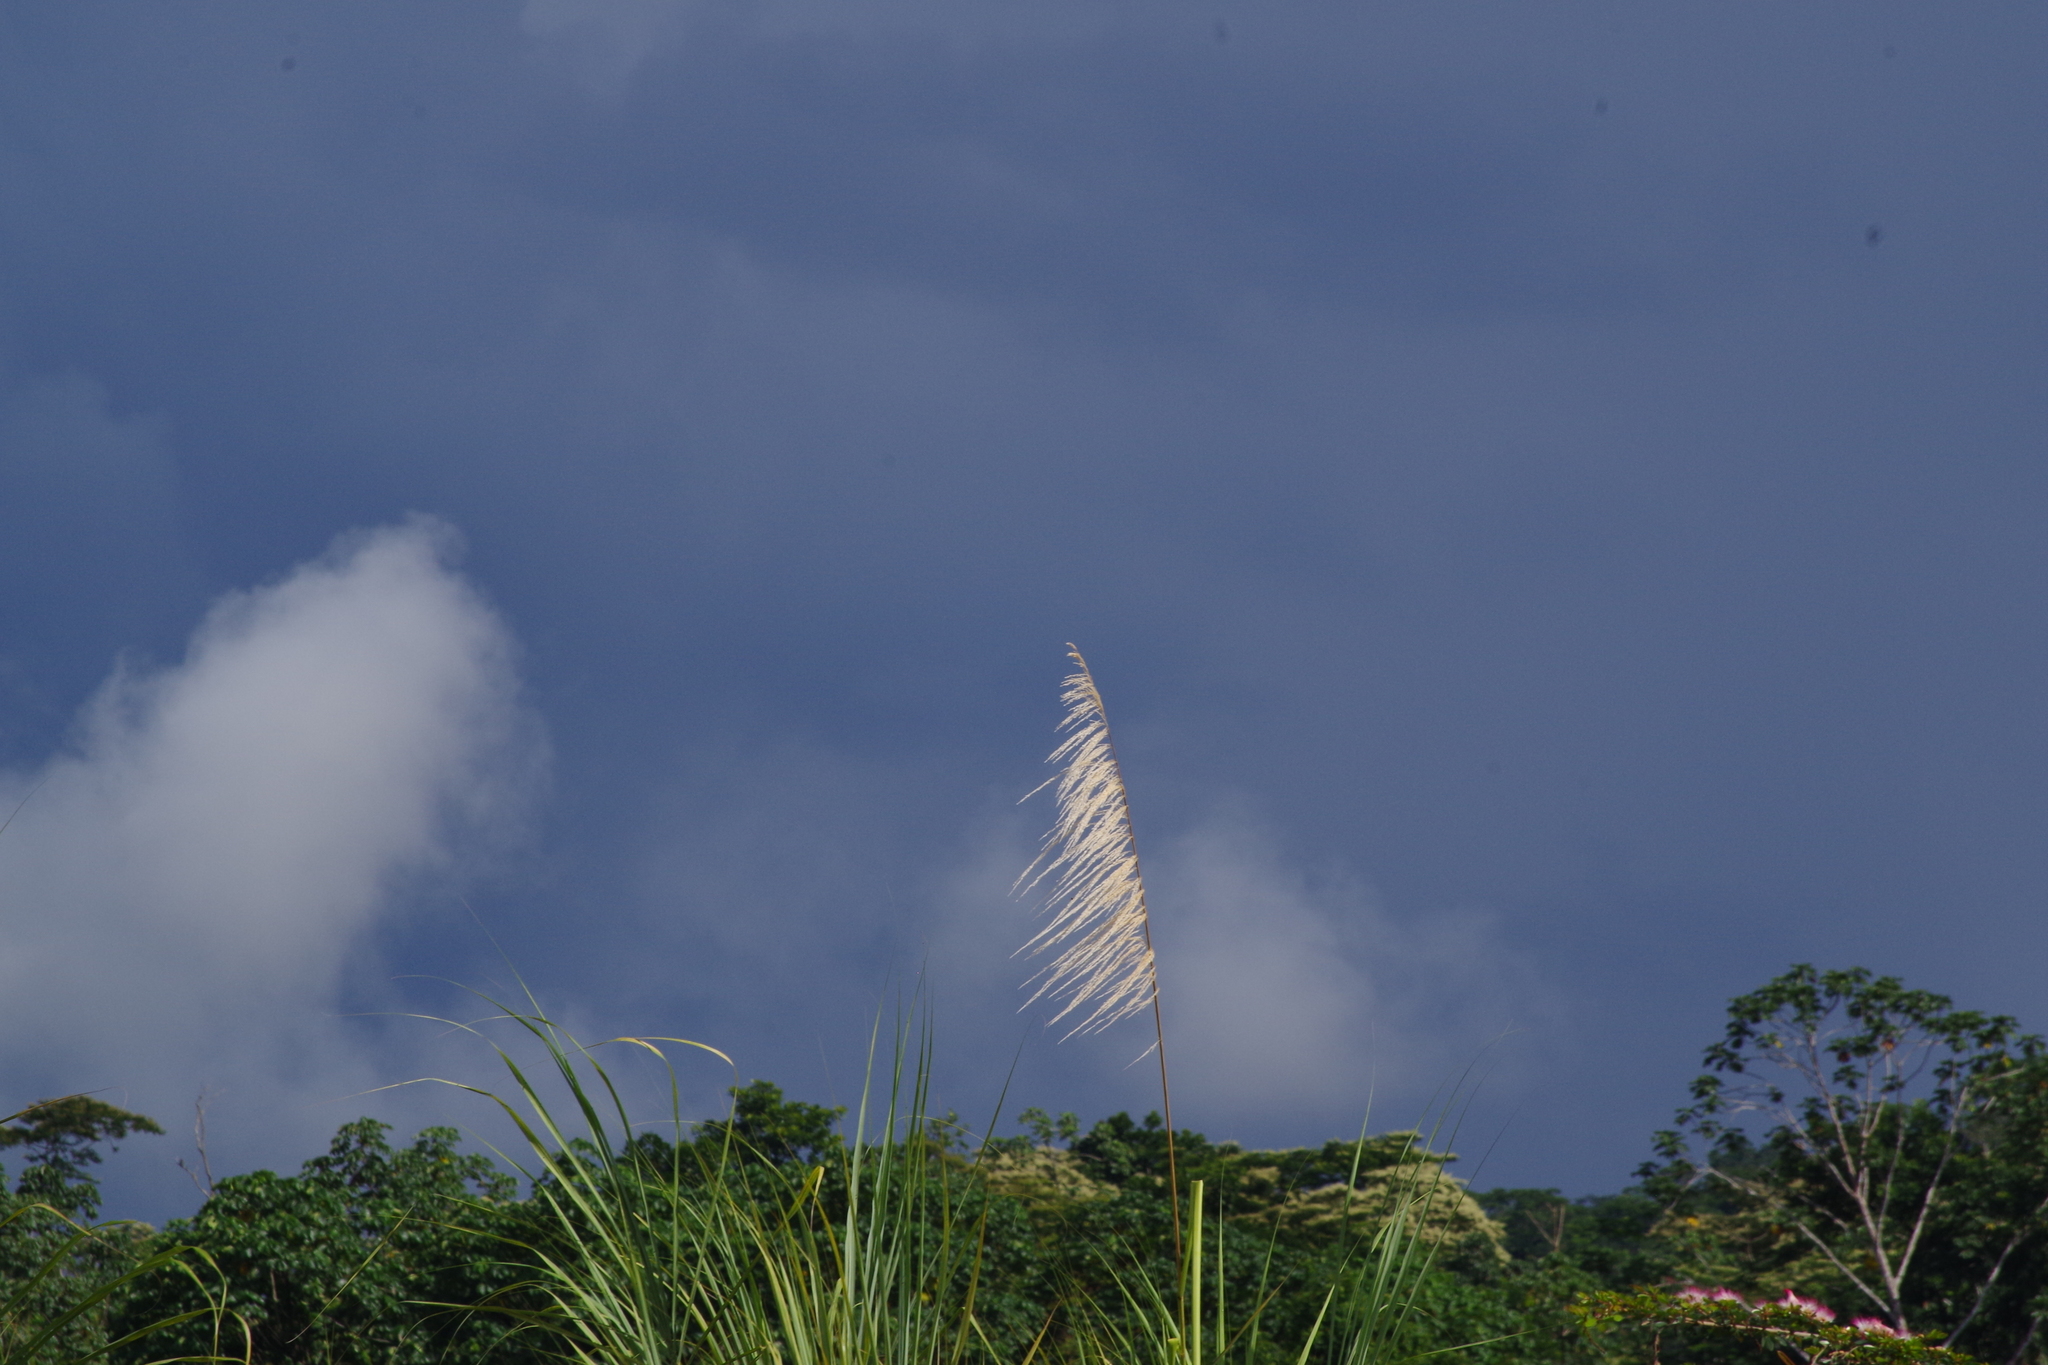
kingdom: Plantae
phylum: Tracheophyta
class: Liliopsida
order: Poales
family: Poaceae
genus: Gynerium
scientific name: Gynerium sagittatum
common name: Wild cane
